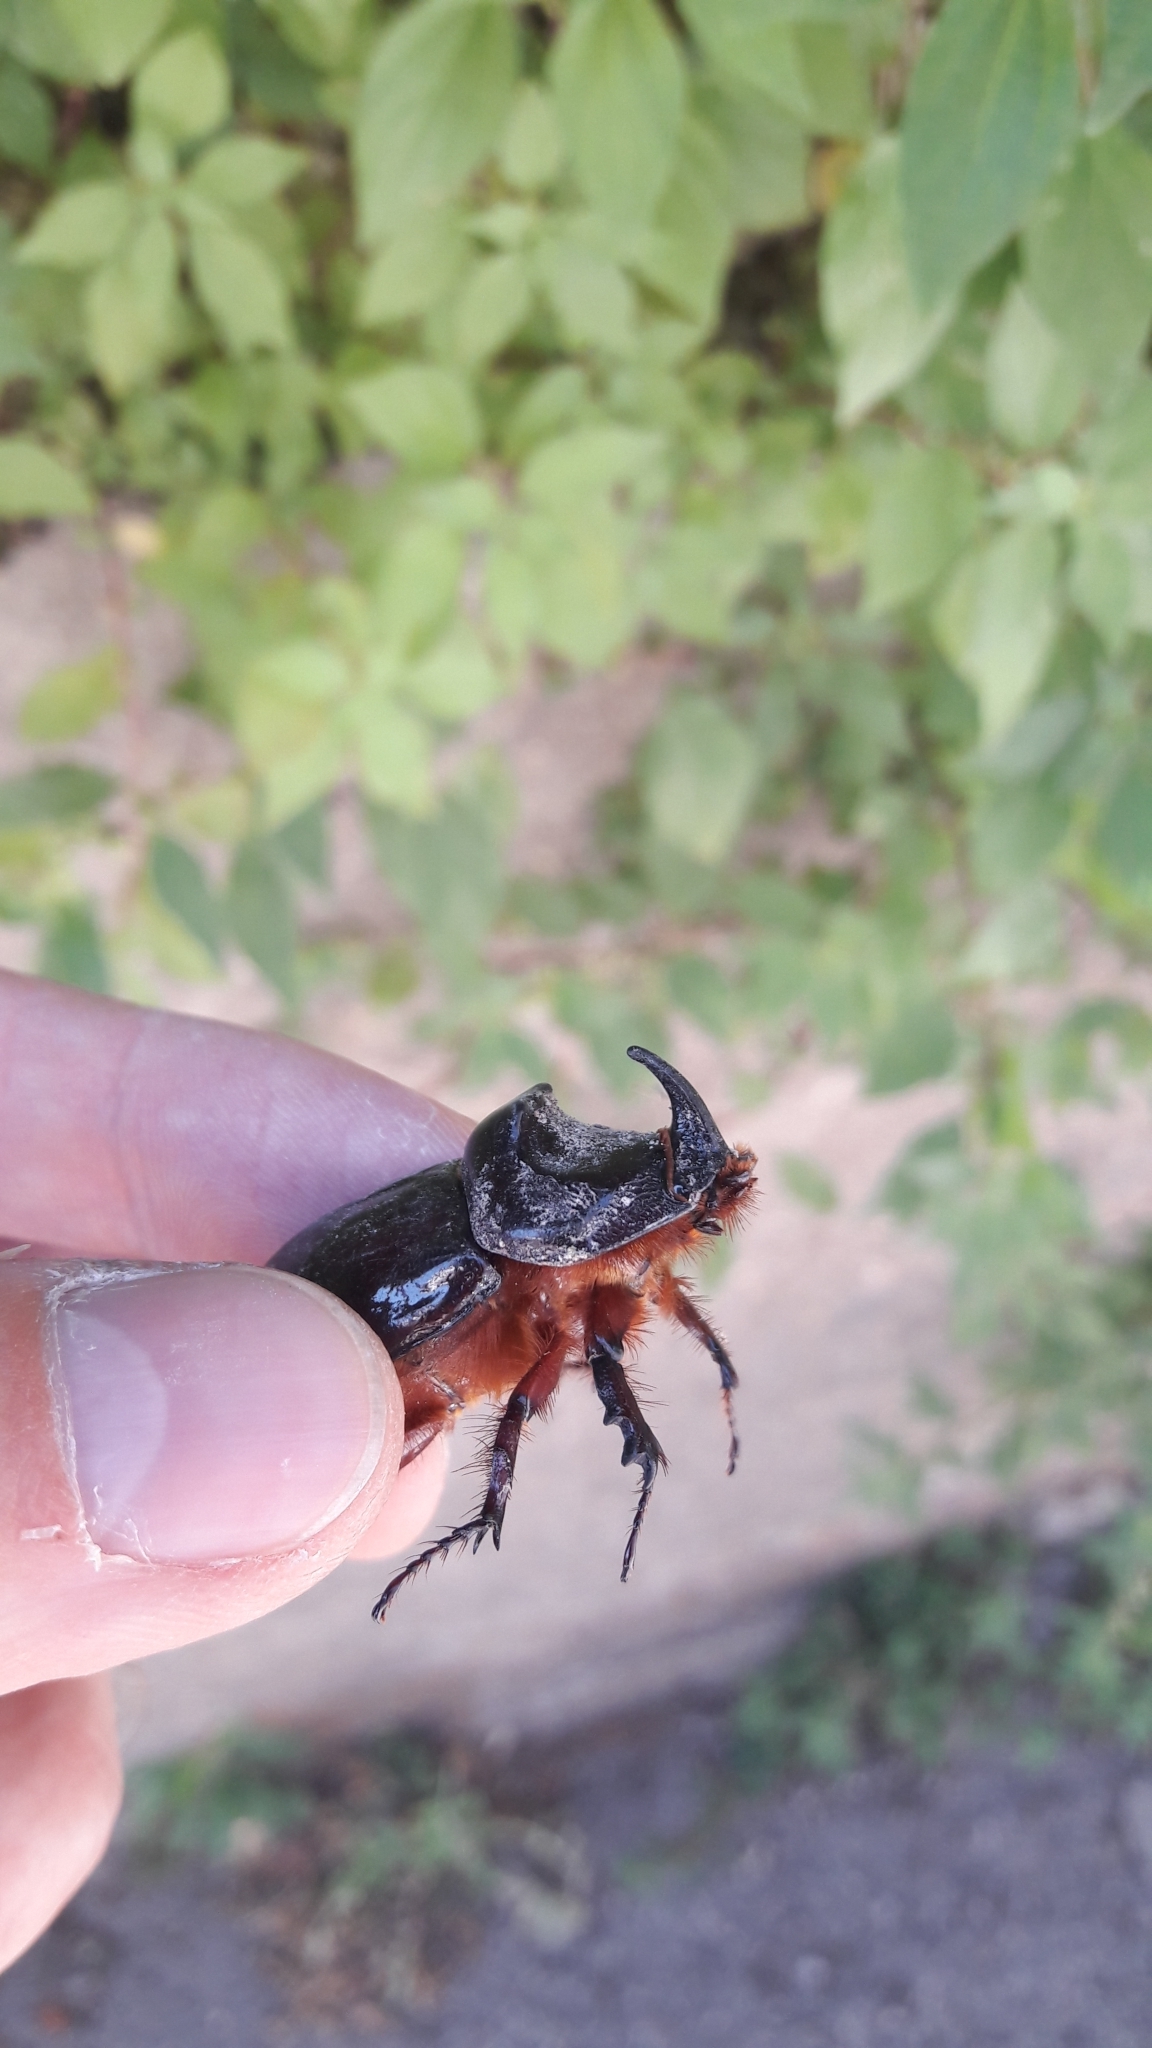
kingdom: Animalia
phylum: Arthropoda
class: Insecta
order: Coleoptera
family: Scarabaeidae
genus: Oryctes
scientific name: Oryctes nasicornis
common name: European rhinoceros beetle
